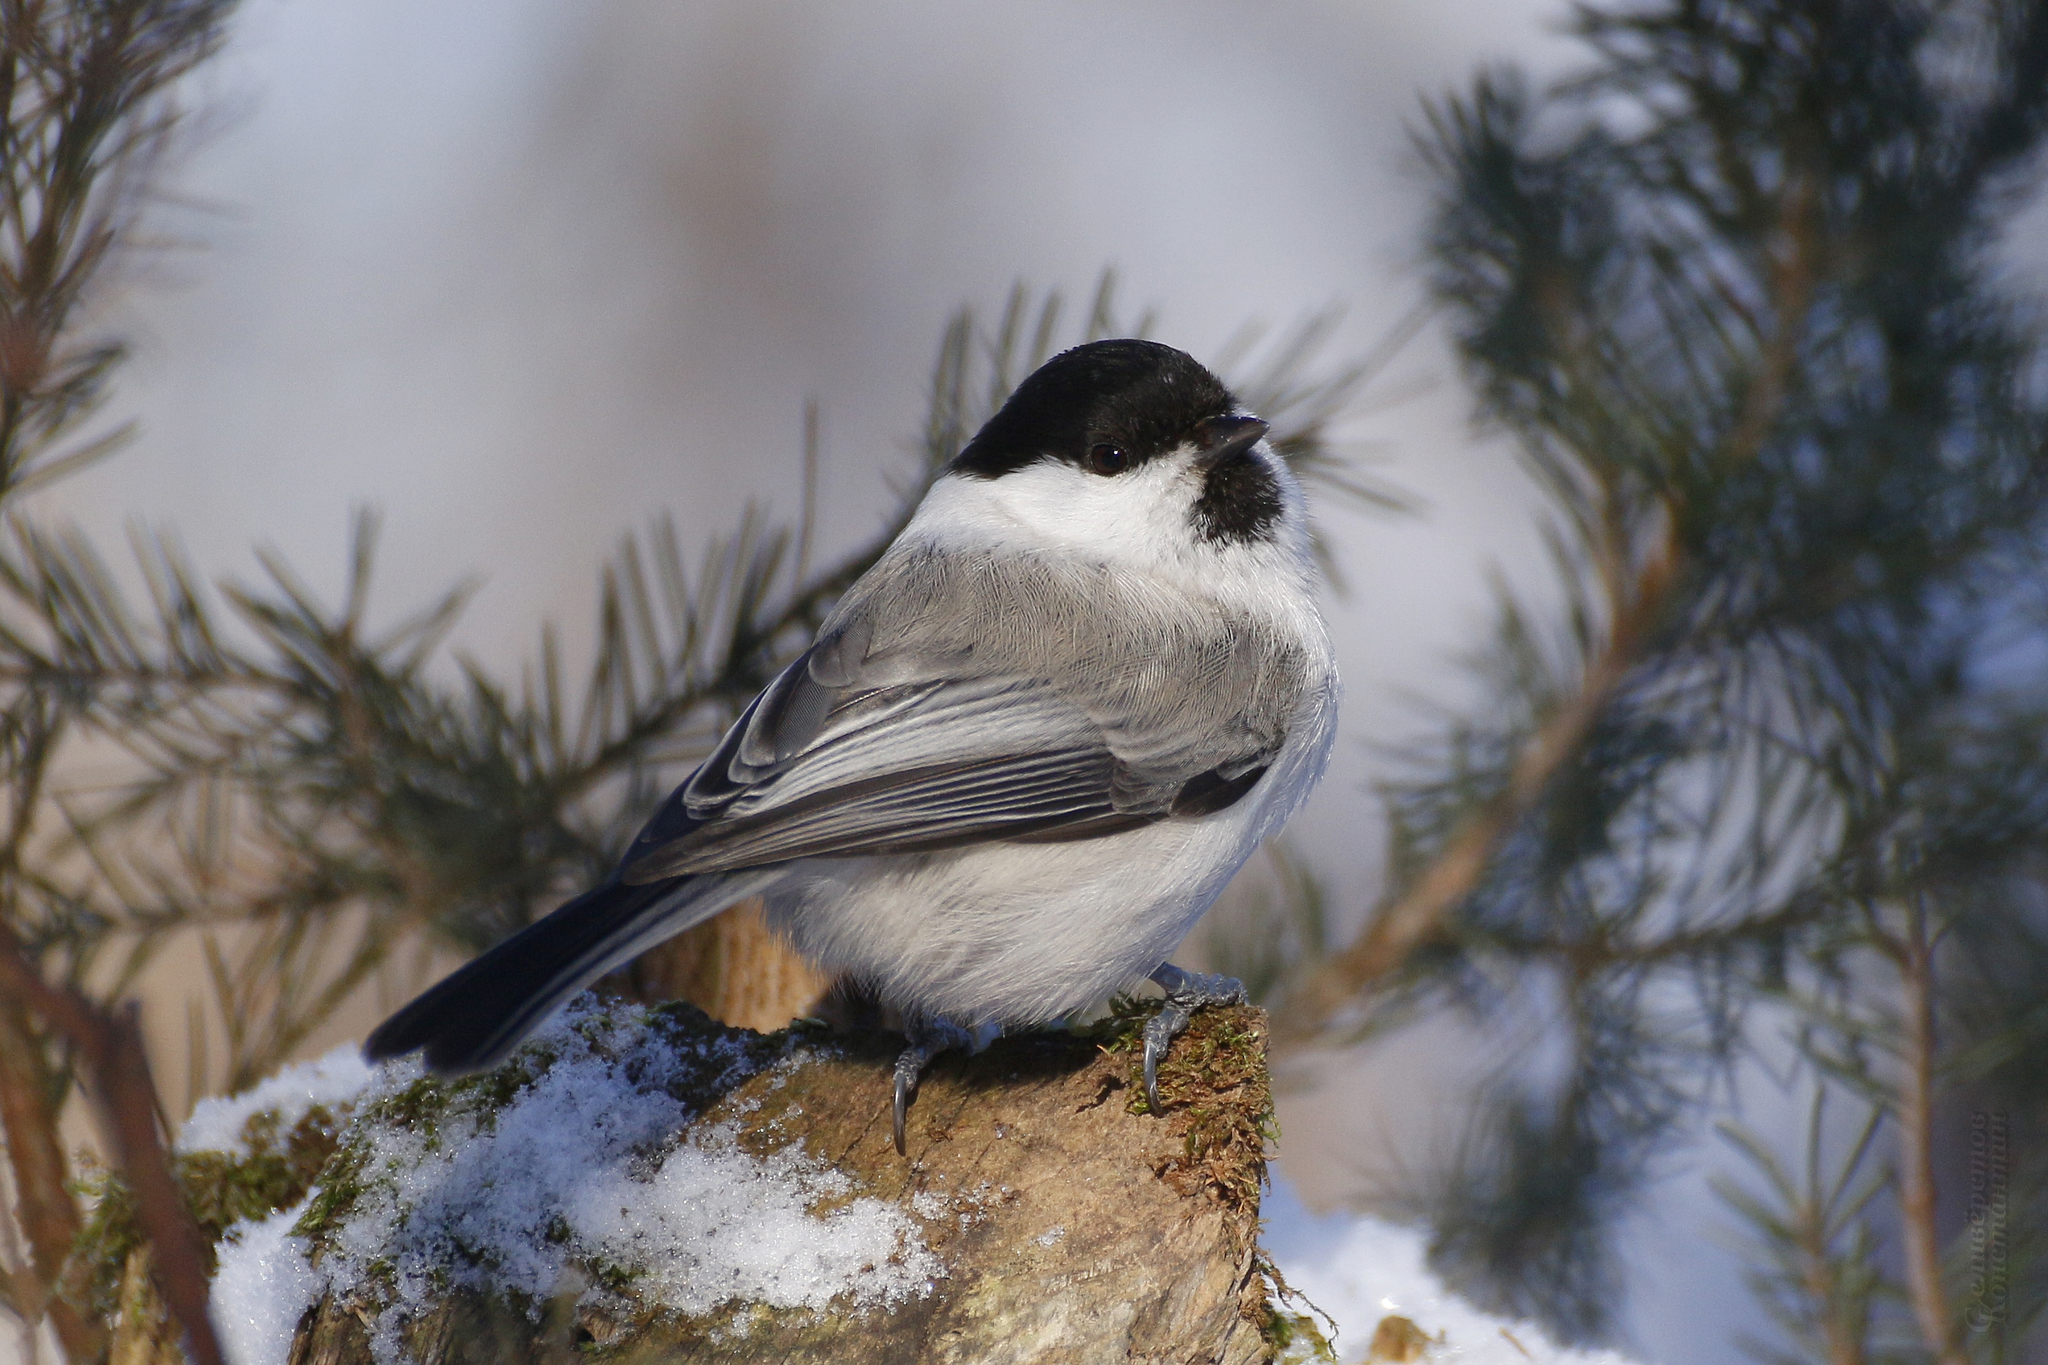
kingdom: Animalia
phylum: Chordata
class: Aves
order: Passeriformes
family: Paridae
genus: Poecile
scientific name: Poecile montanus
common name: Willow tit
